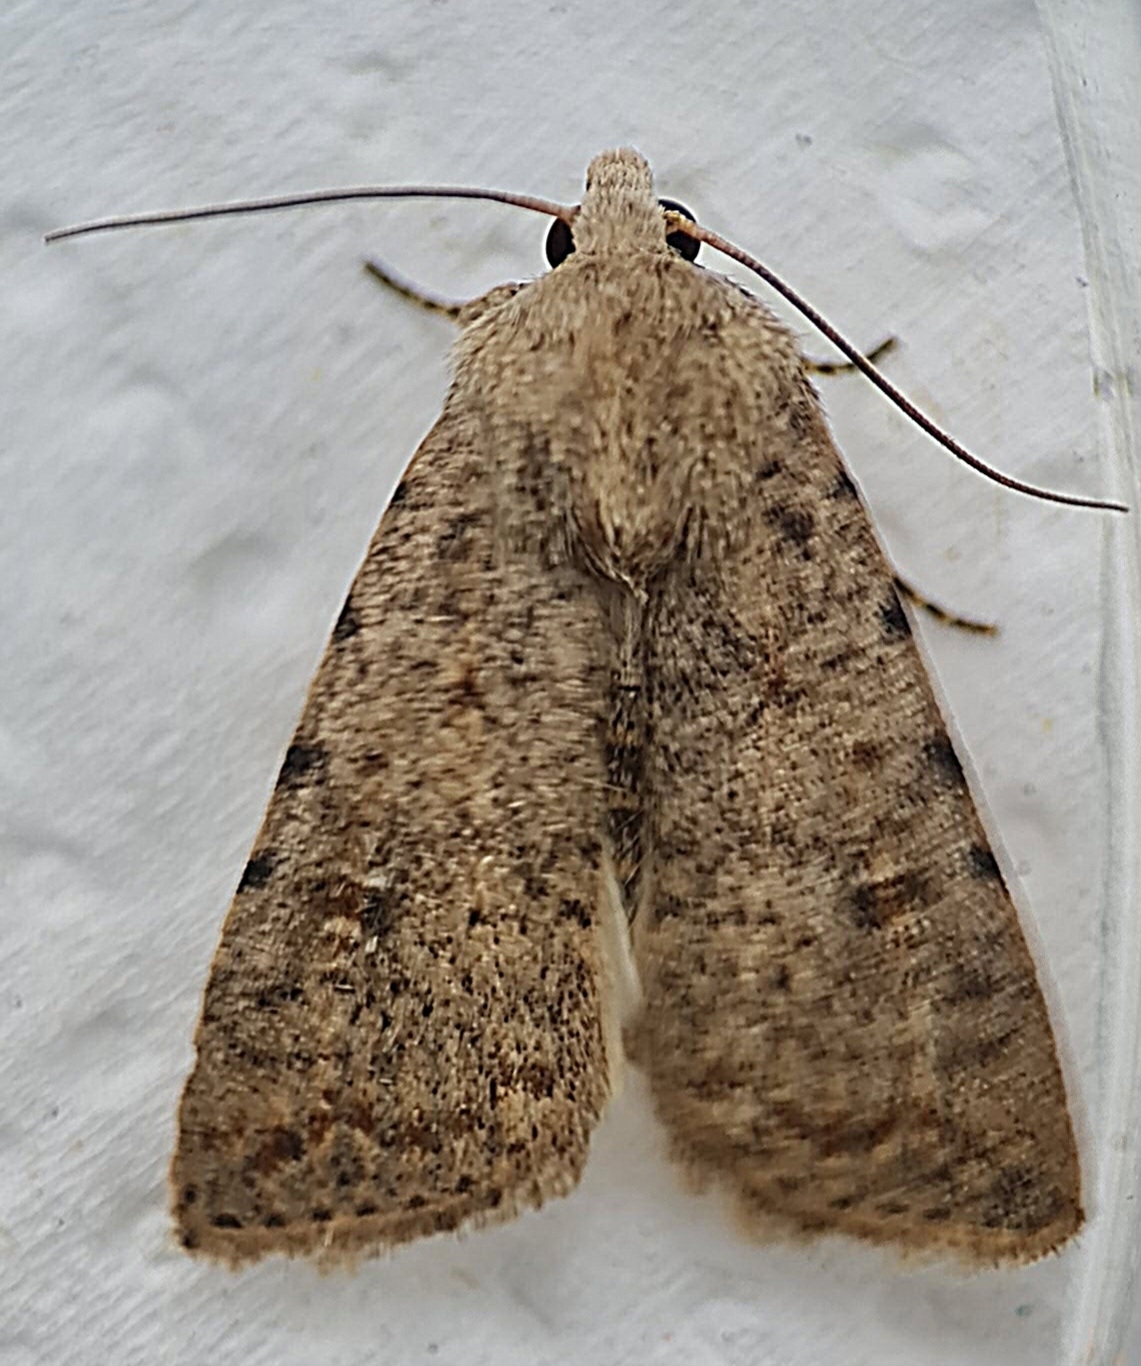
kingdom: Animalia
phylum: Arthropoda
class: Insecta
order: Lepidoptera
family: Noctuidae
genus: Caradrina
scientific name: Caradrina clavipalpis
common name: Pale mottled willow
